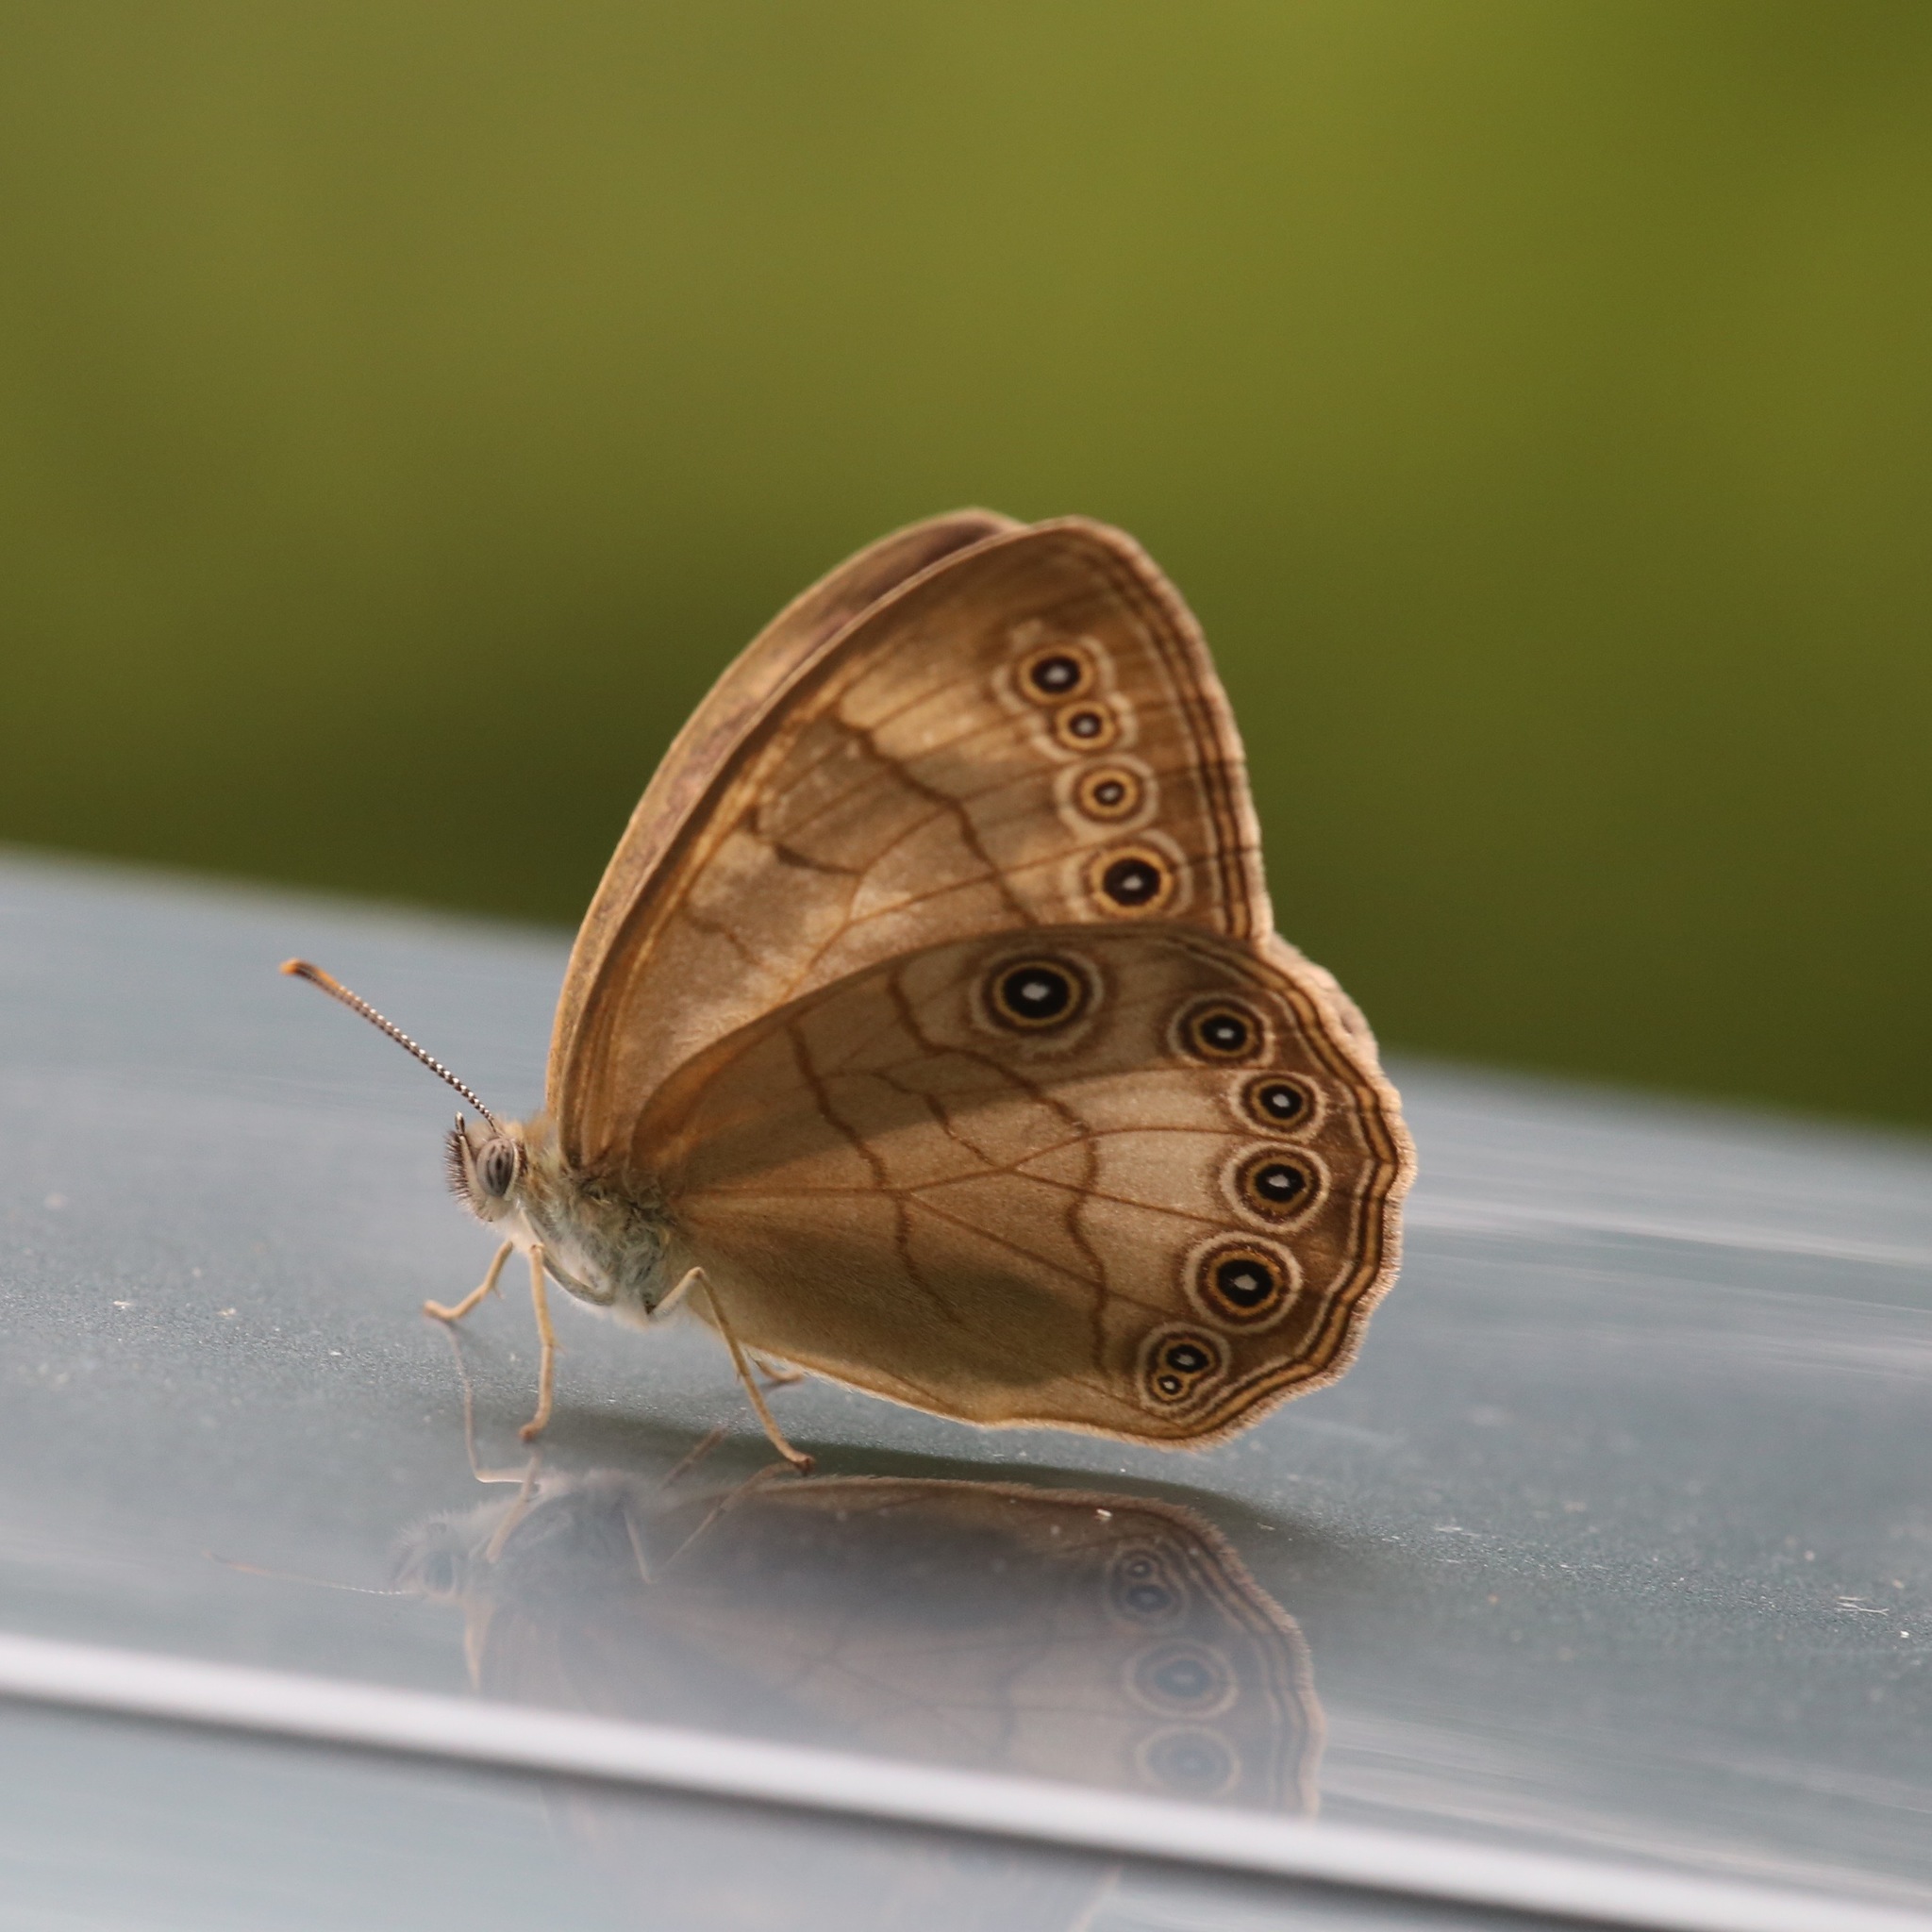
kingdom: Animalia
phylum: Arthropoda
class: Insecta
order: Lepidoptera
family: Nymphalidae
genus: Lethe
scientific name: Lethe eurydice
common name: Eyed brown
